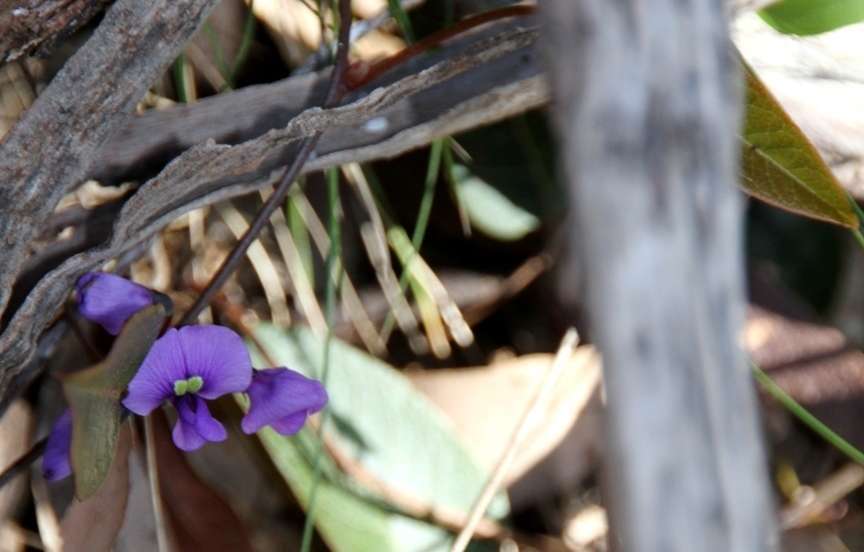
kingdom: Plantae
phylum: Tracheophyta
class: Magnoliopsida
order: Fabales
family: Fabaceae
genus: Hardenbergia
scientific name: Hardenbergia violacea
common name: Coral-pea
